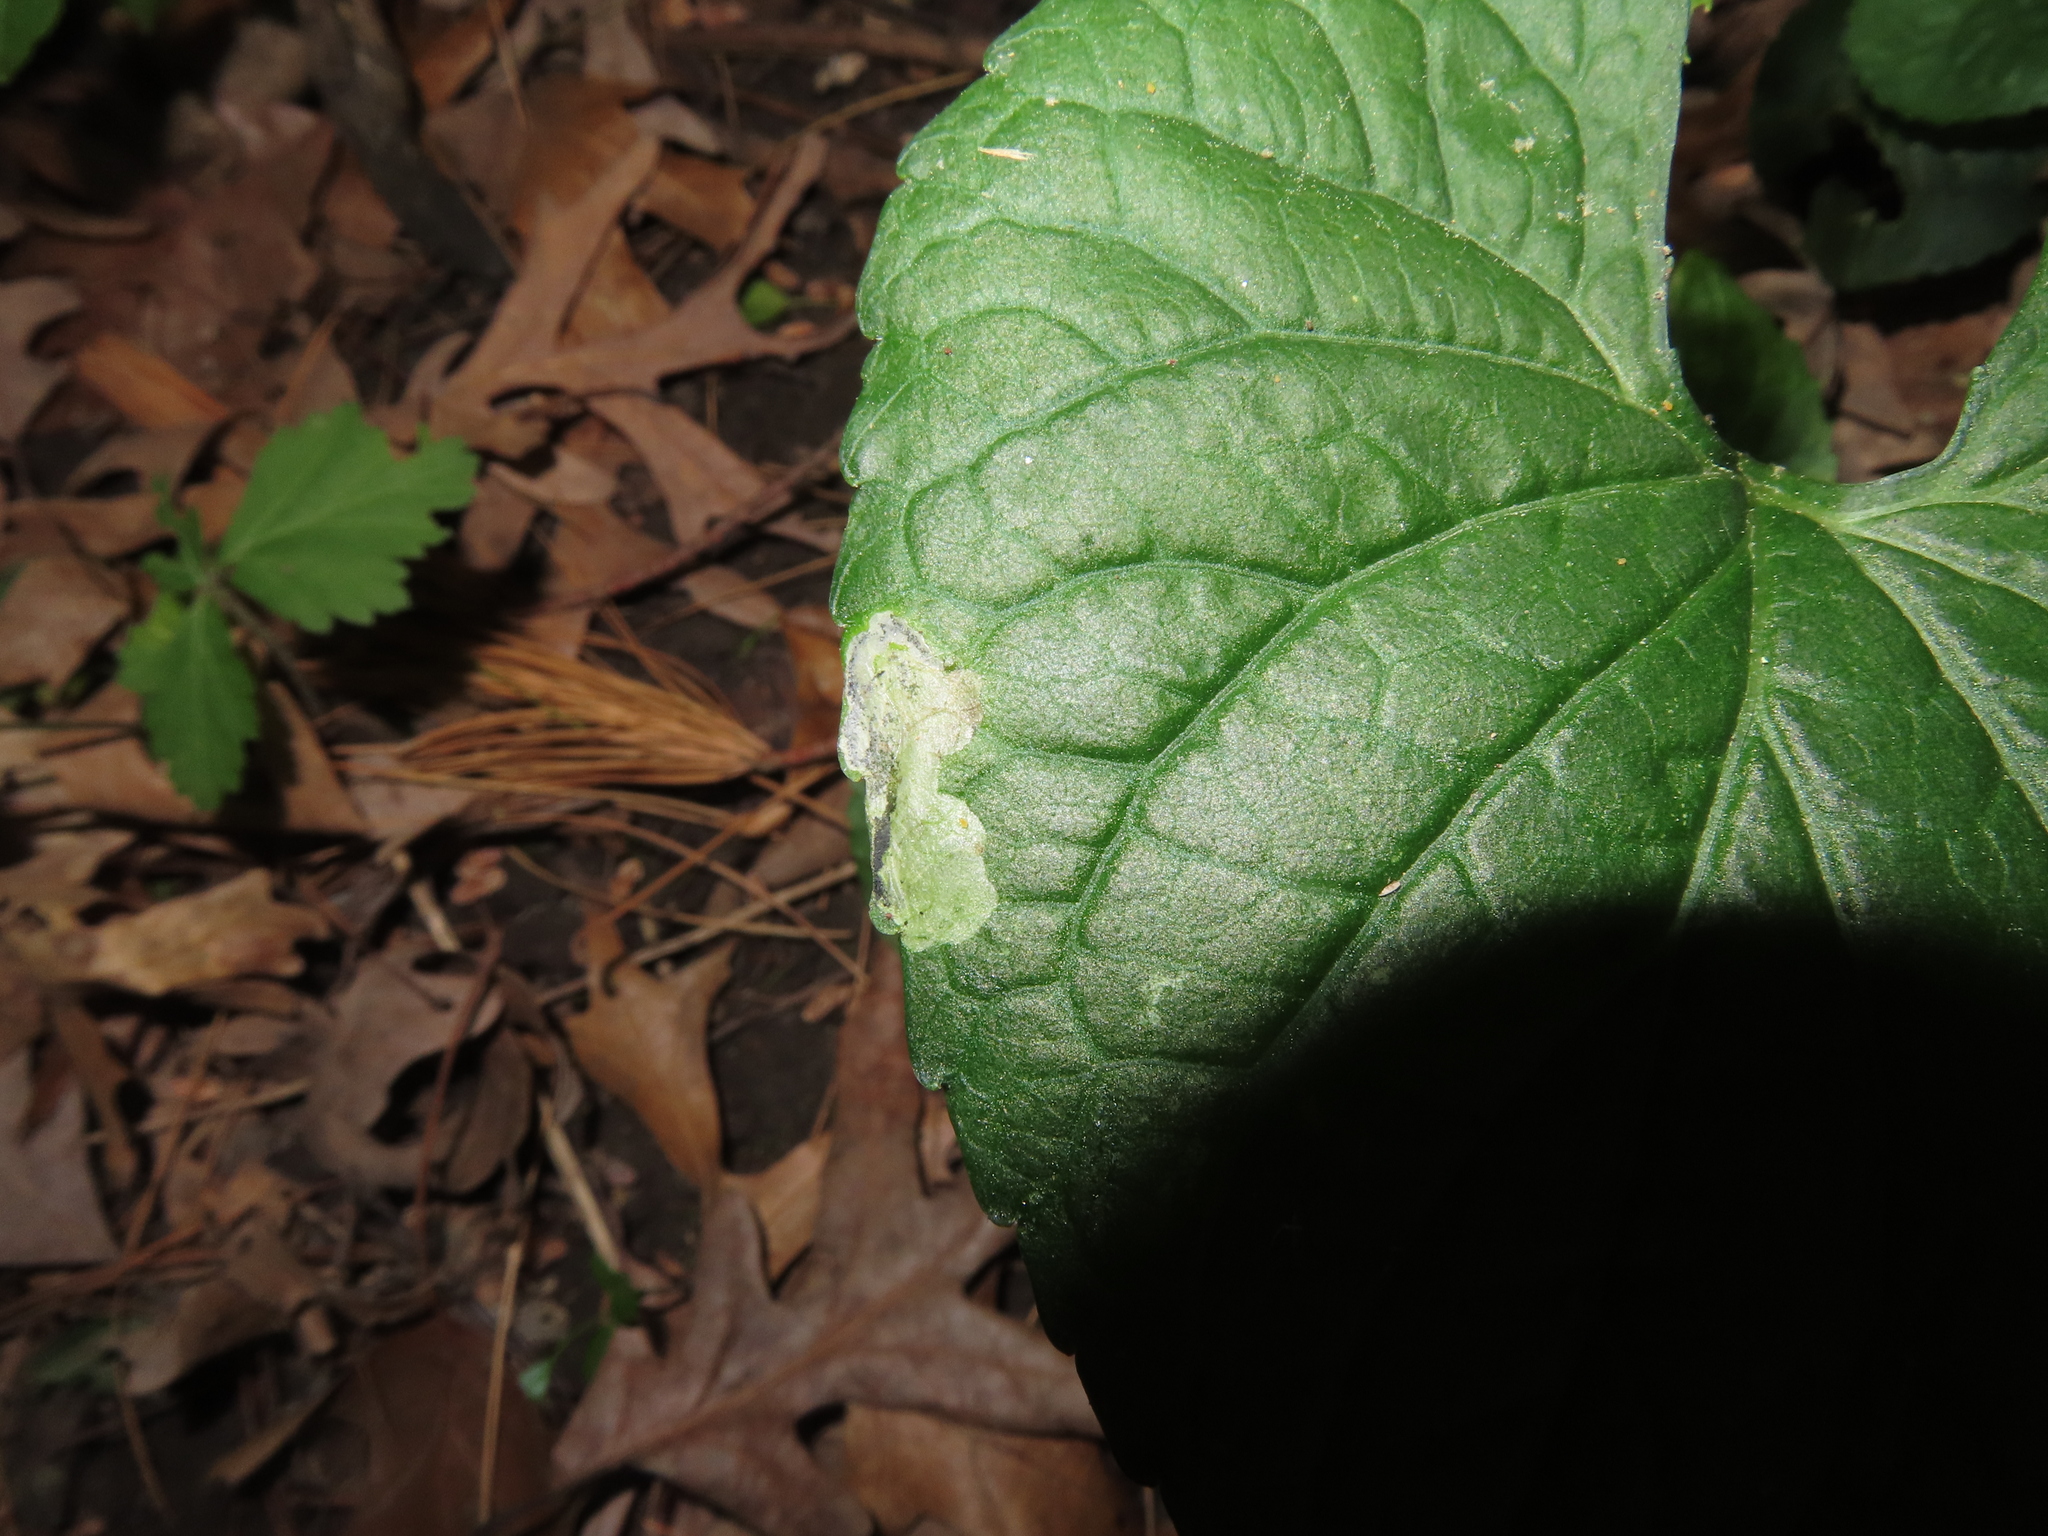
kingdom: Animalia
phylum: Arthropoda
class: Insecta
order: Hymenoptera
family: Tenthredinidae
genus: Nefusa
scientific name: Nefusa ambigua
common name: Violet leafmining sawfly
